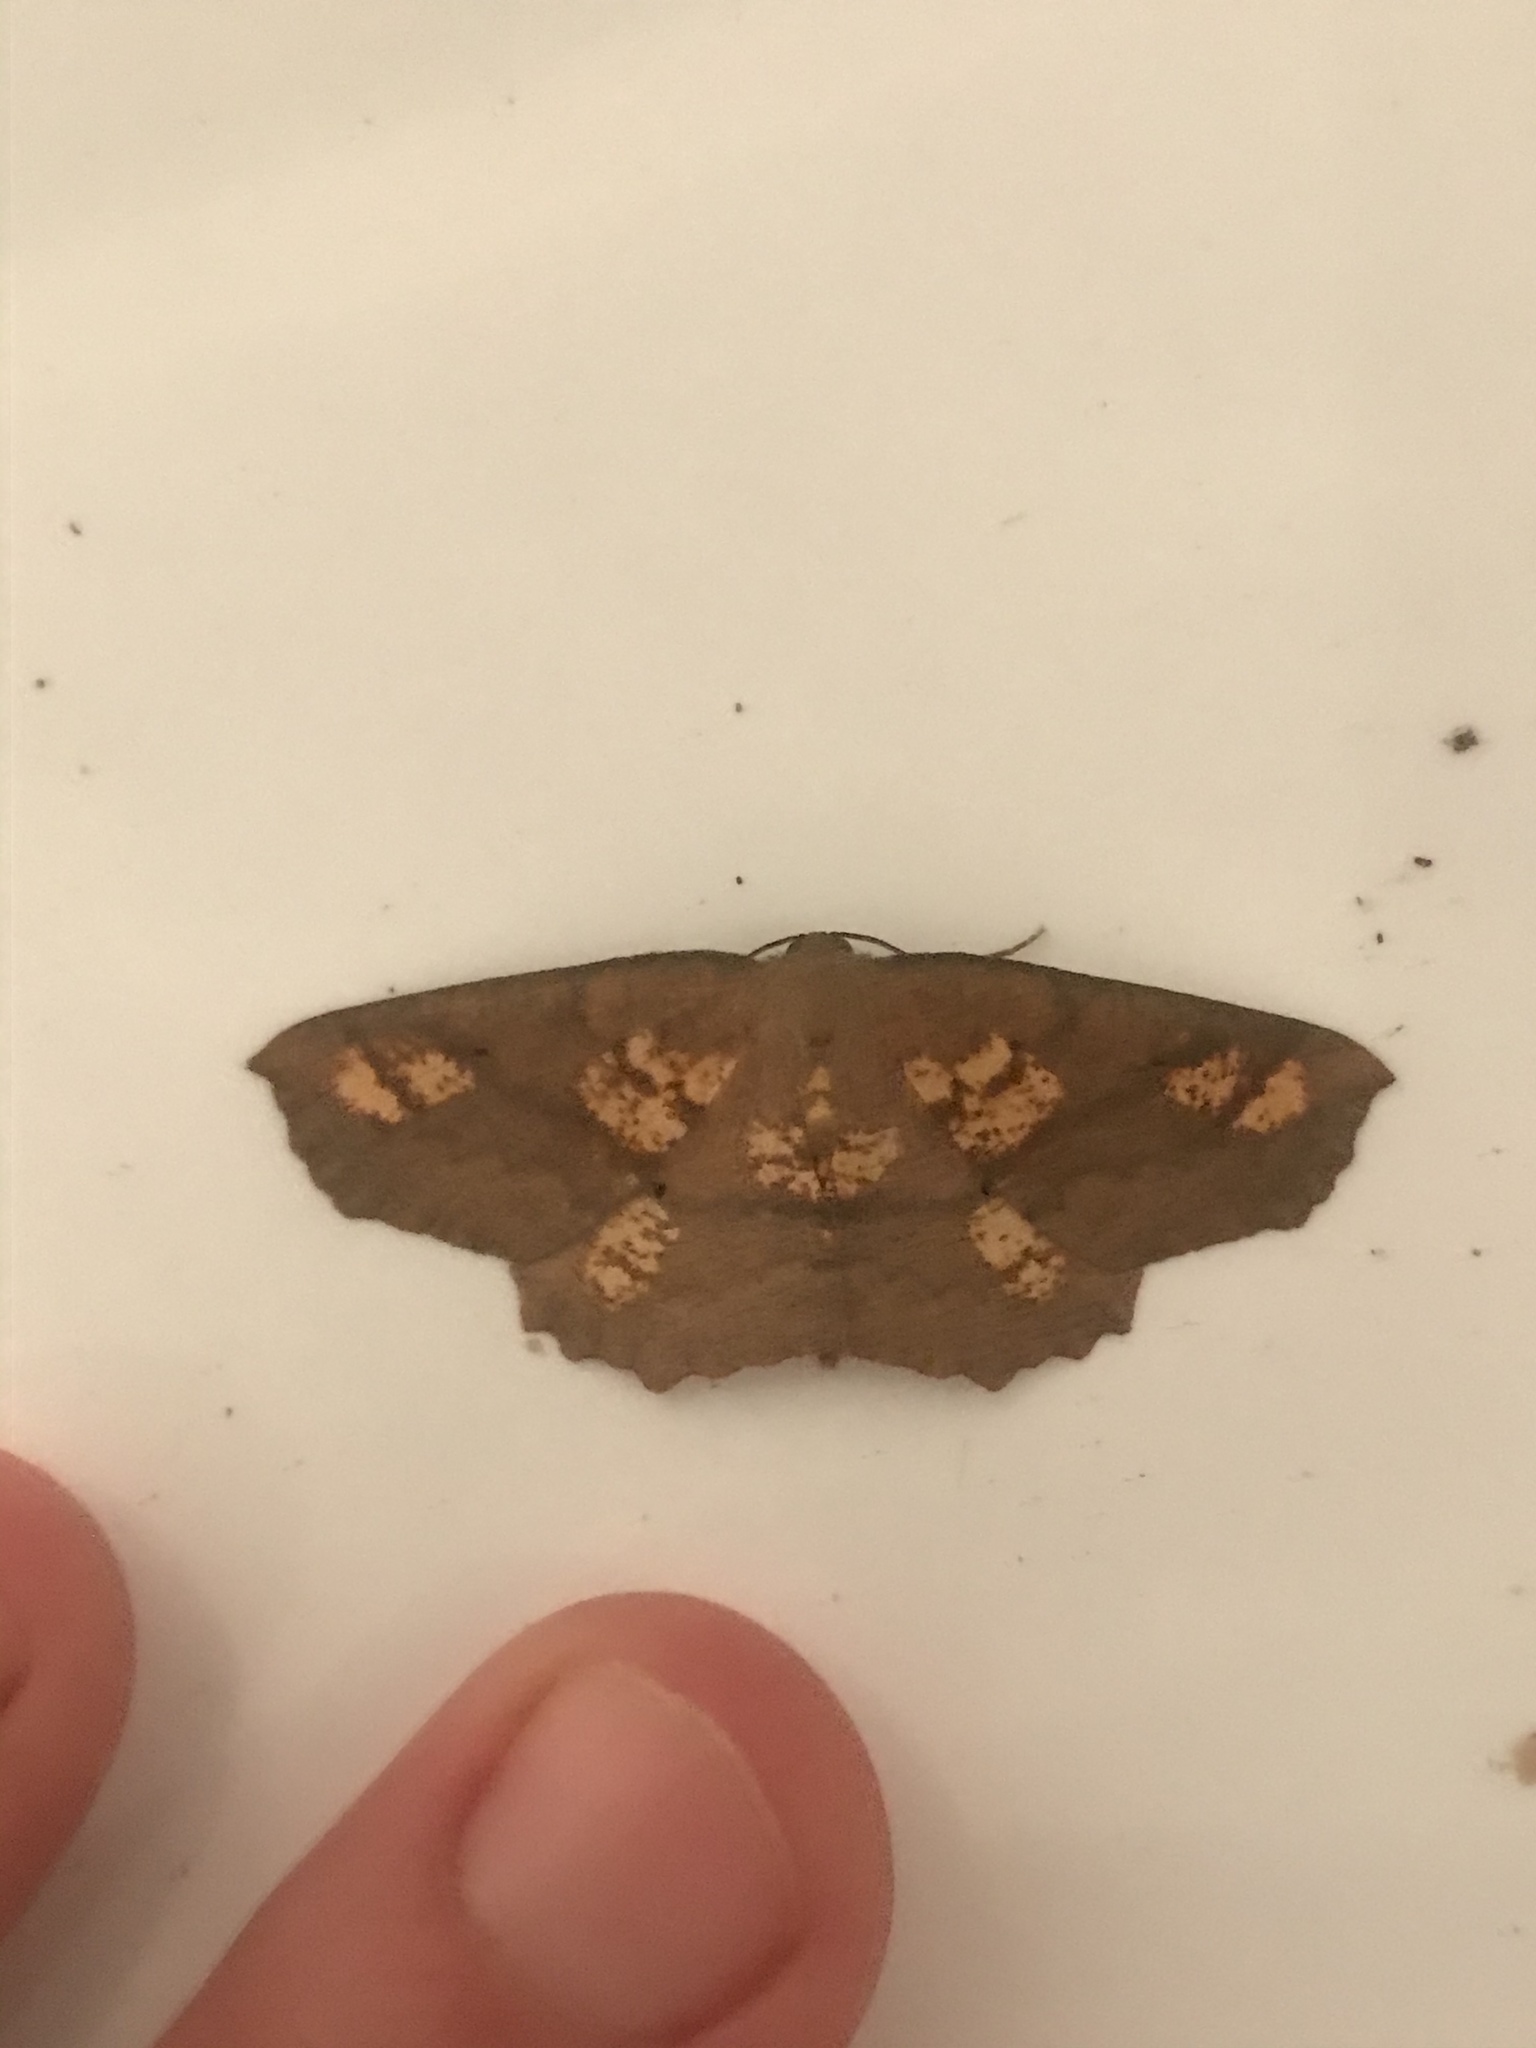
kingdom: Animalia
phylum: Arthropoda
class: Insecta
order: Lepidoptera
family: Geometridae
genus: Xyridacma
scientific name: Xyridacma ustaria
